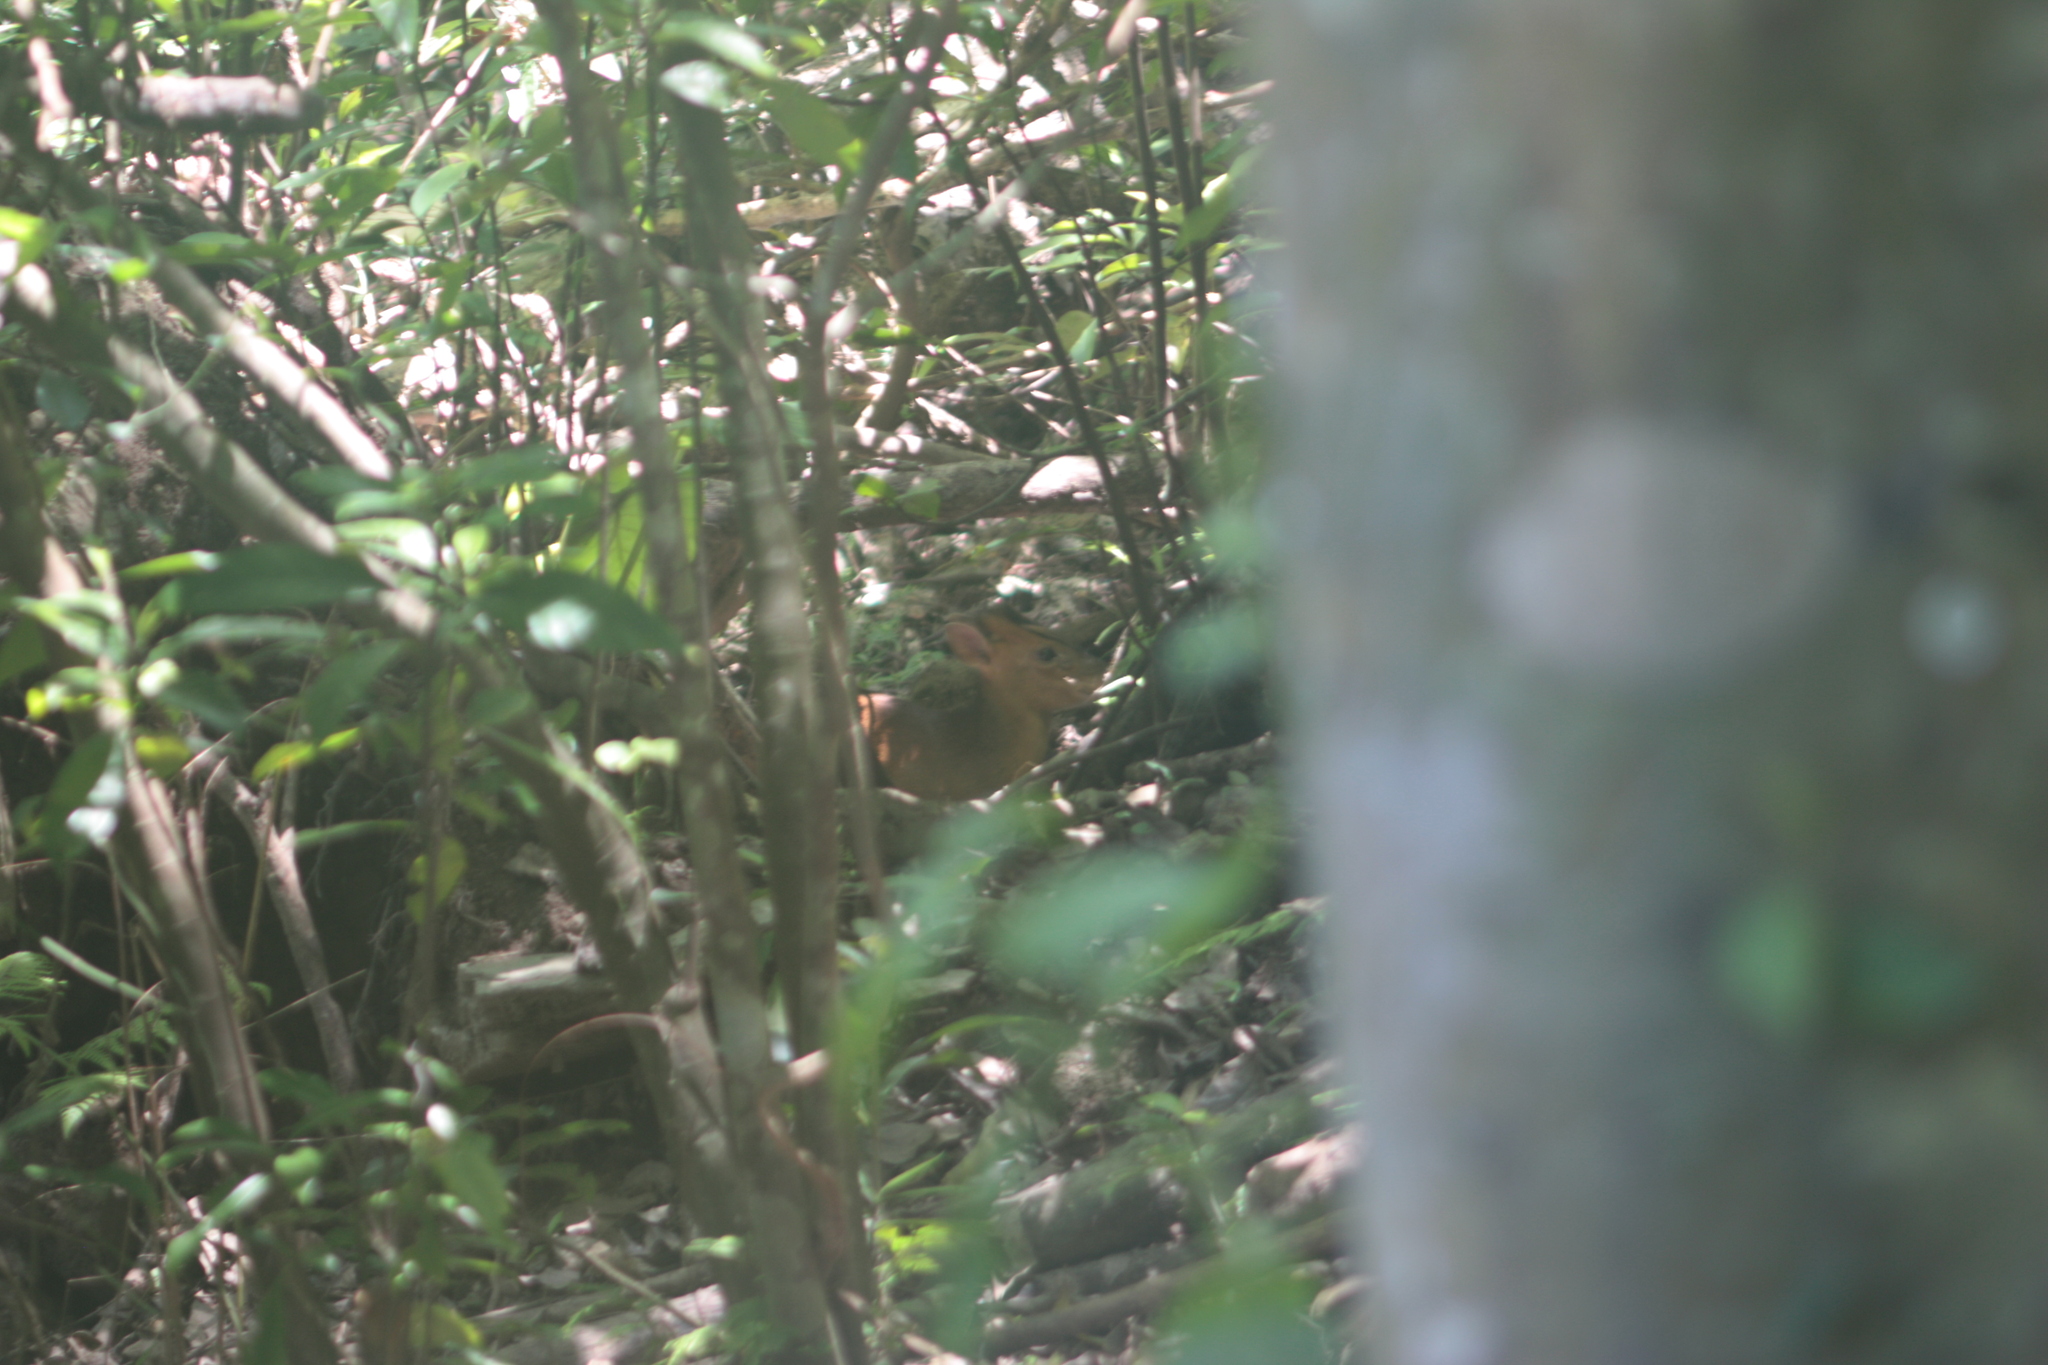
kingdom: Animalia
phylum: Chordata
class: Mammalia
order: Artiodactyla
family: Cervidae
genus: Muntiacus
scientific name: Muntiacus reevesi
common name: Reeves' muntjac
